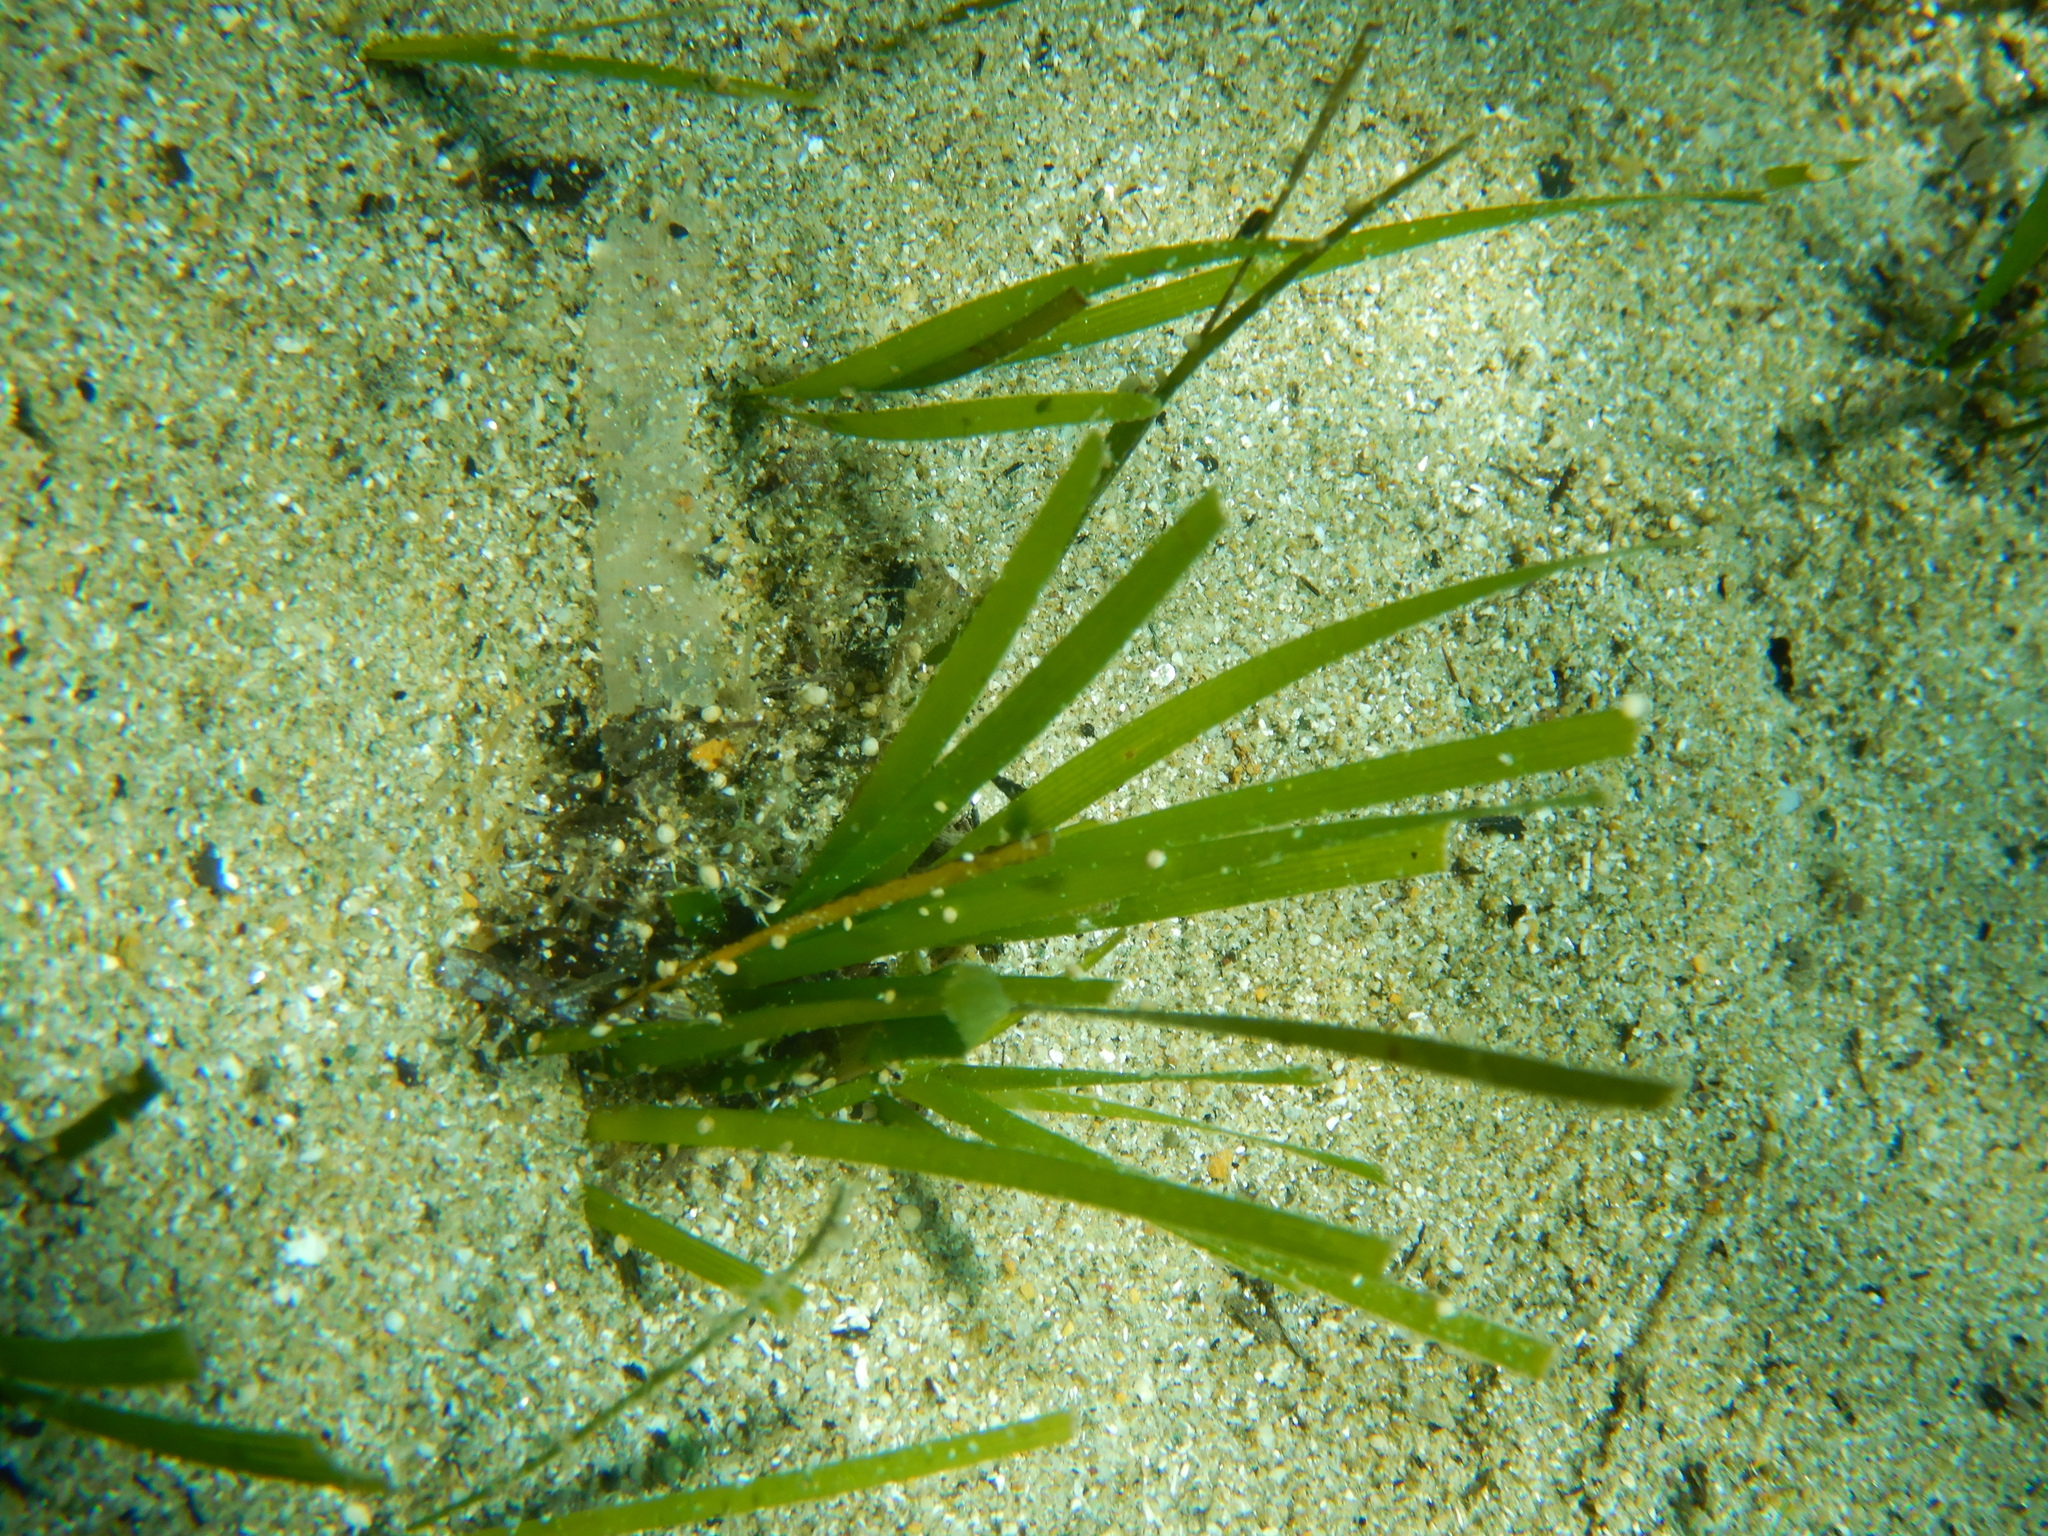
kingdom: Plantae
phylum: Tracheophyta
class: Liliopsida
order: Alismatales
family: Cymodoceaceae
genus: Cymodocea
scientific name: Cymodocea nodosa
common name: Slender seagrass
